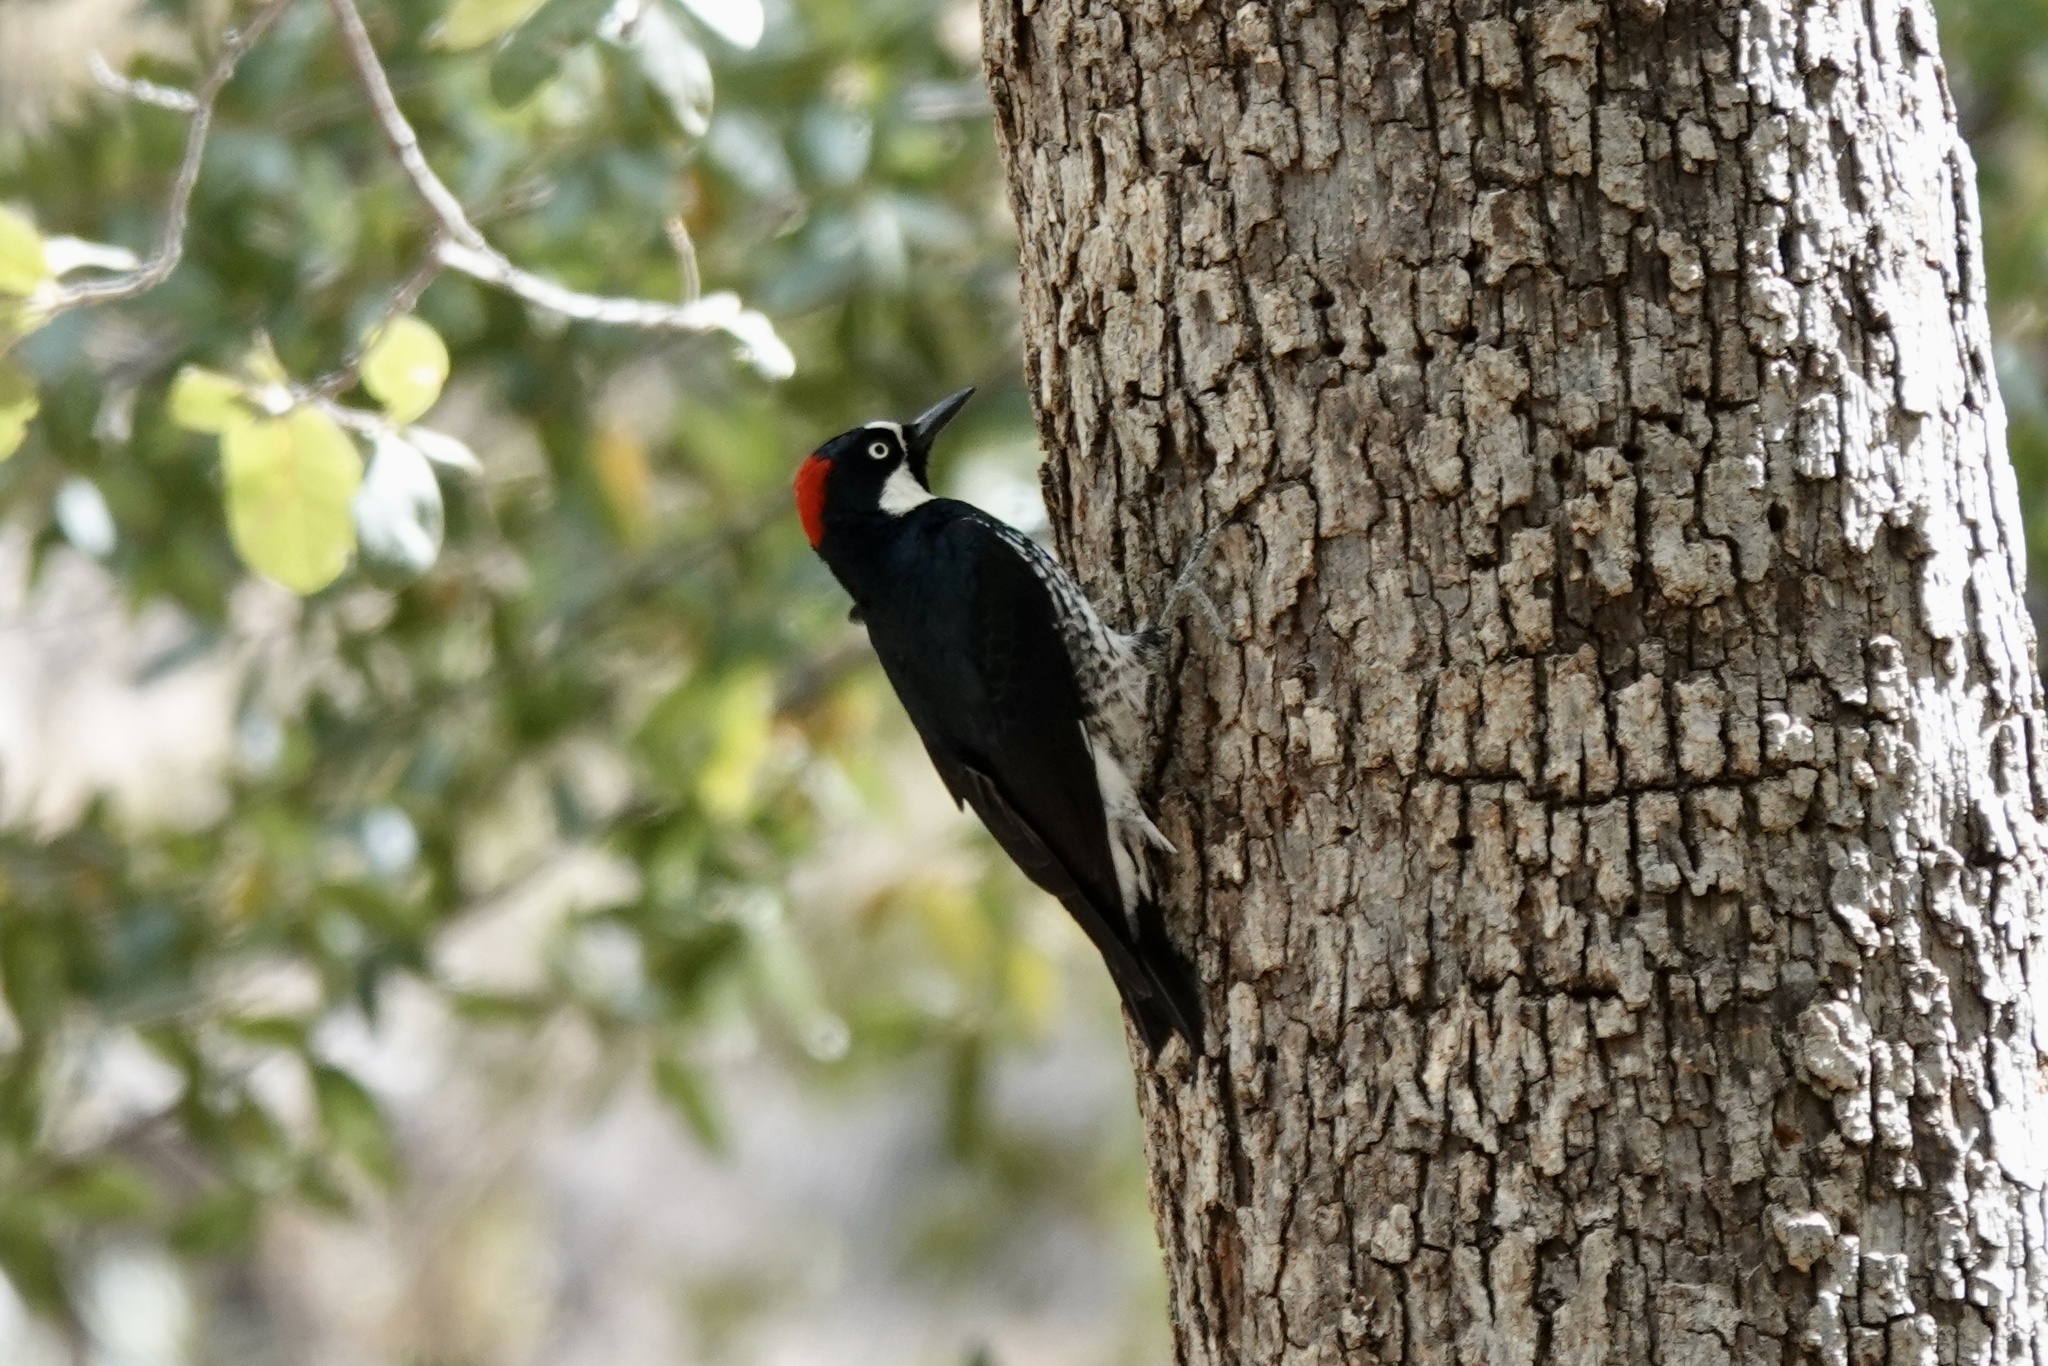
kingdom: Animalia
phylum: Chordata
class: Aves
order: Piciformes
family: Picidae
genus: Melanerpes
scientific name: Melanerpes formicivorus
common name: Acorn woodpecker
